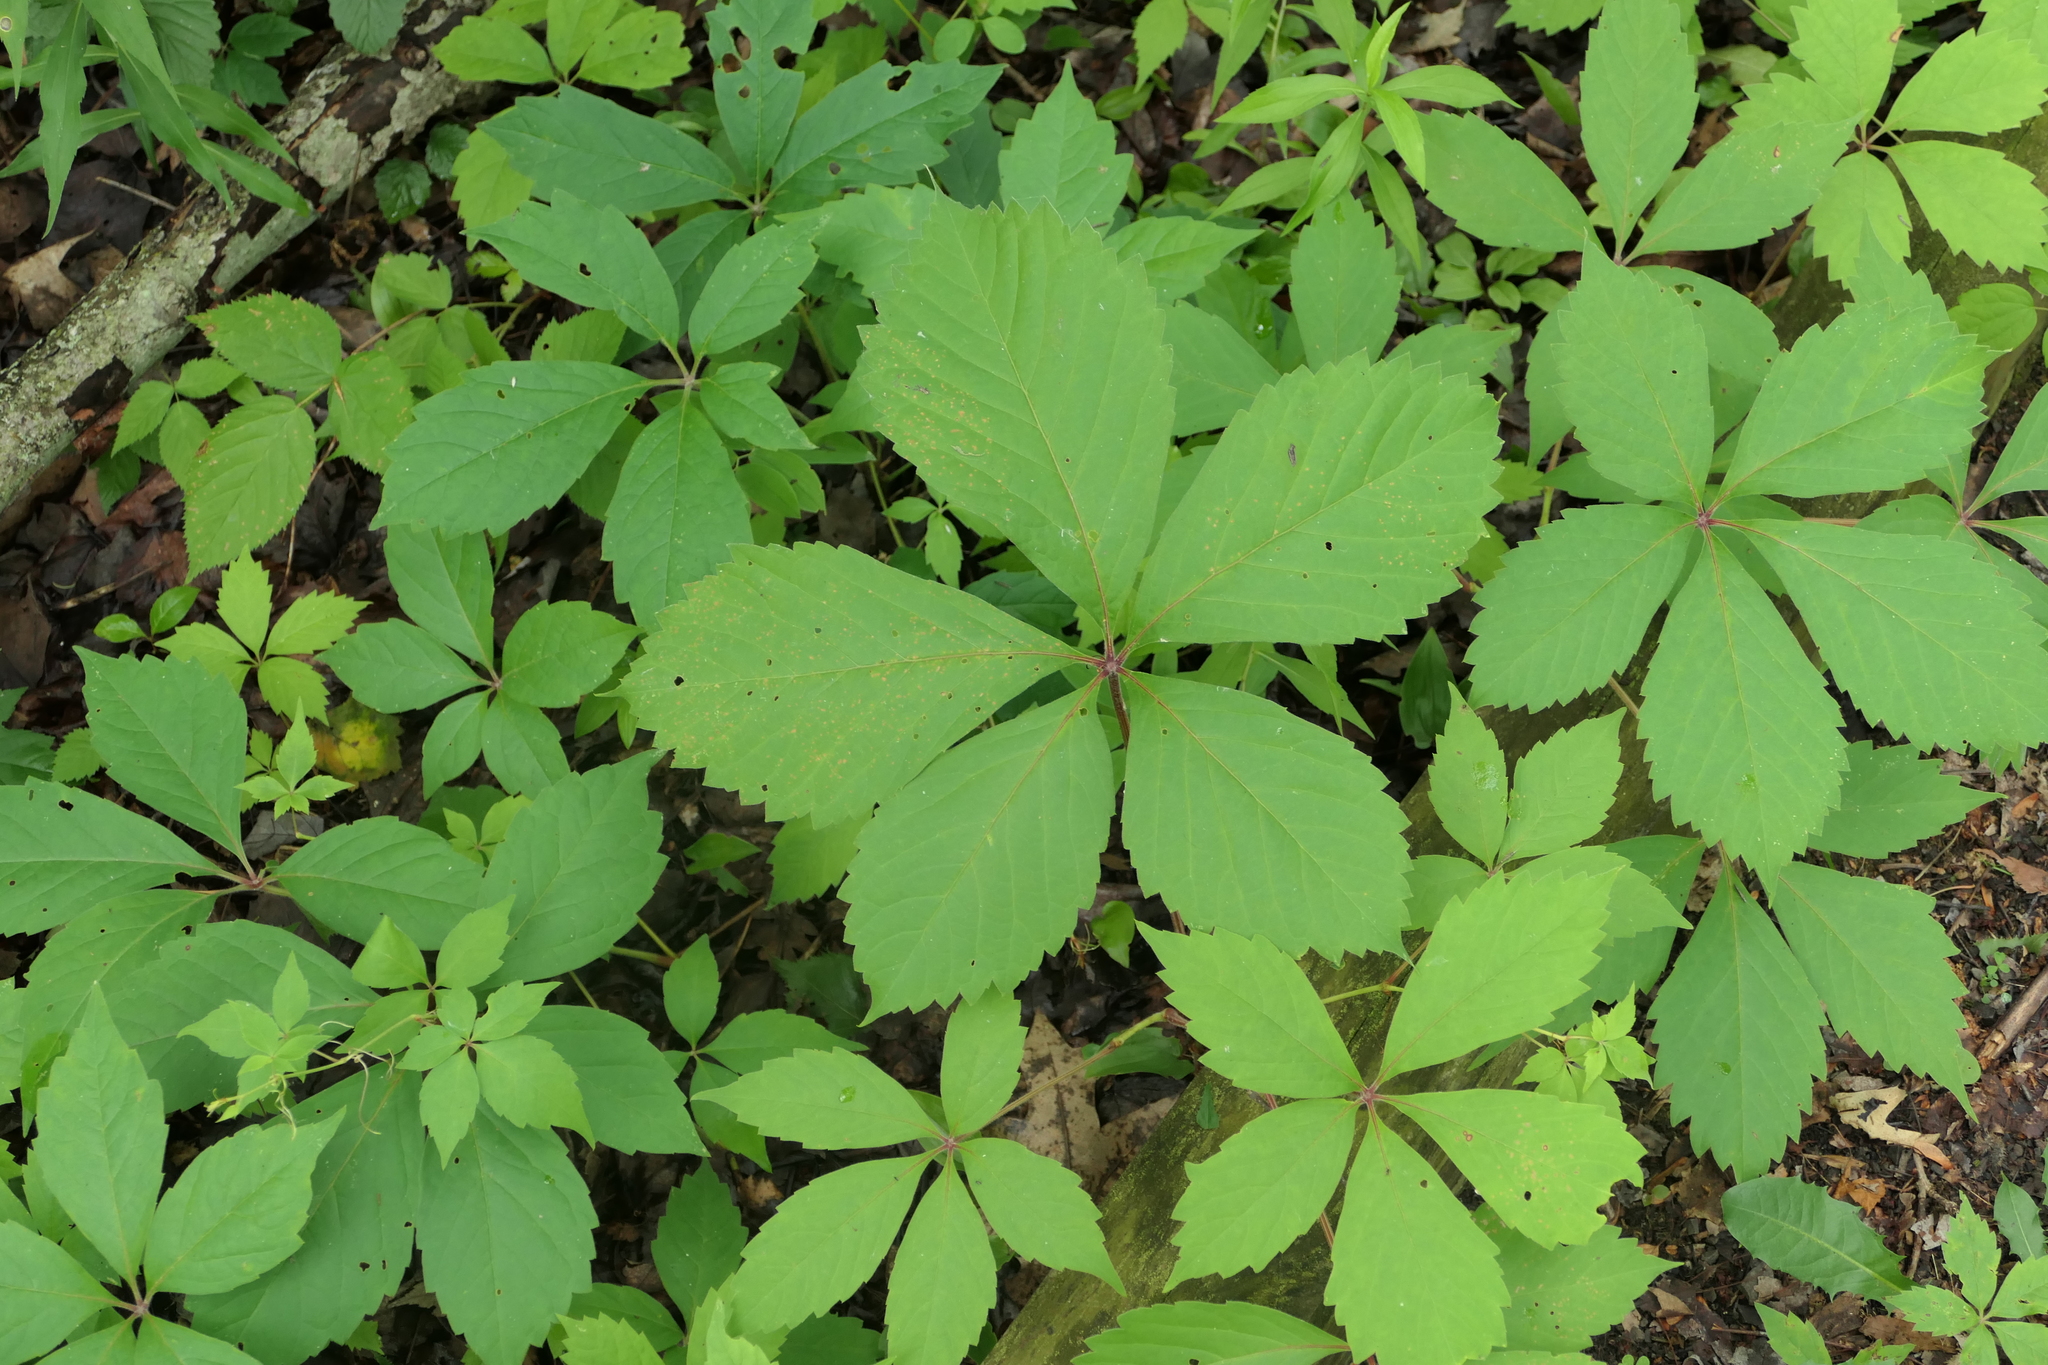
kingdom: Plantae
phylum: Tracheophyta
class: Magnoliopsida
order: Vitales
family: Vitaceae
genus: Parthenocissus
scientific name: Parthenocissus quinquefolia
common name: Virginia-creeper
